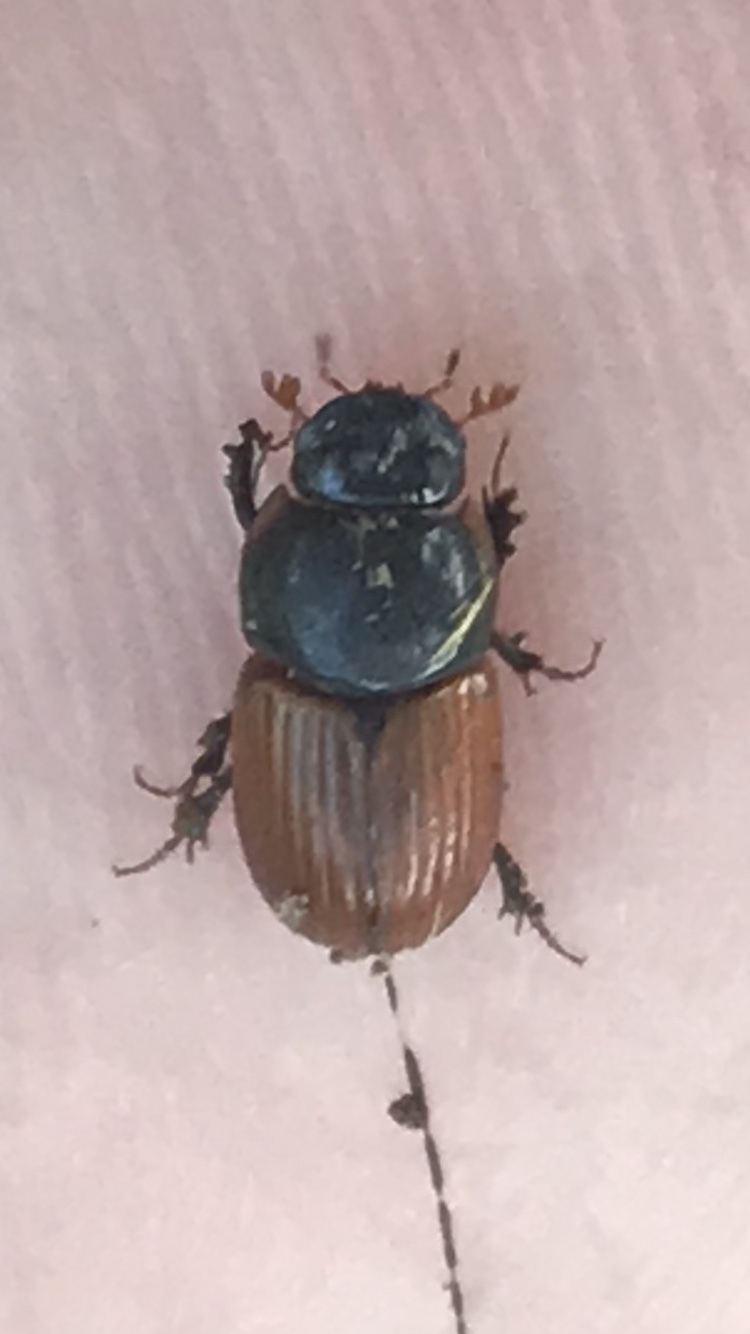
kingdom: Animalia
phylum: Arthropoda
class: Insecta
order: Coleoptera
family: Scarabaeidae
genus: Aphodius
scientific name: Aphodius pedellus
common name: Common dung beetle
